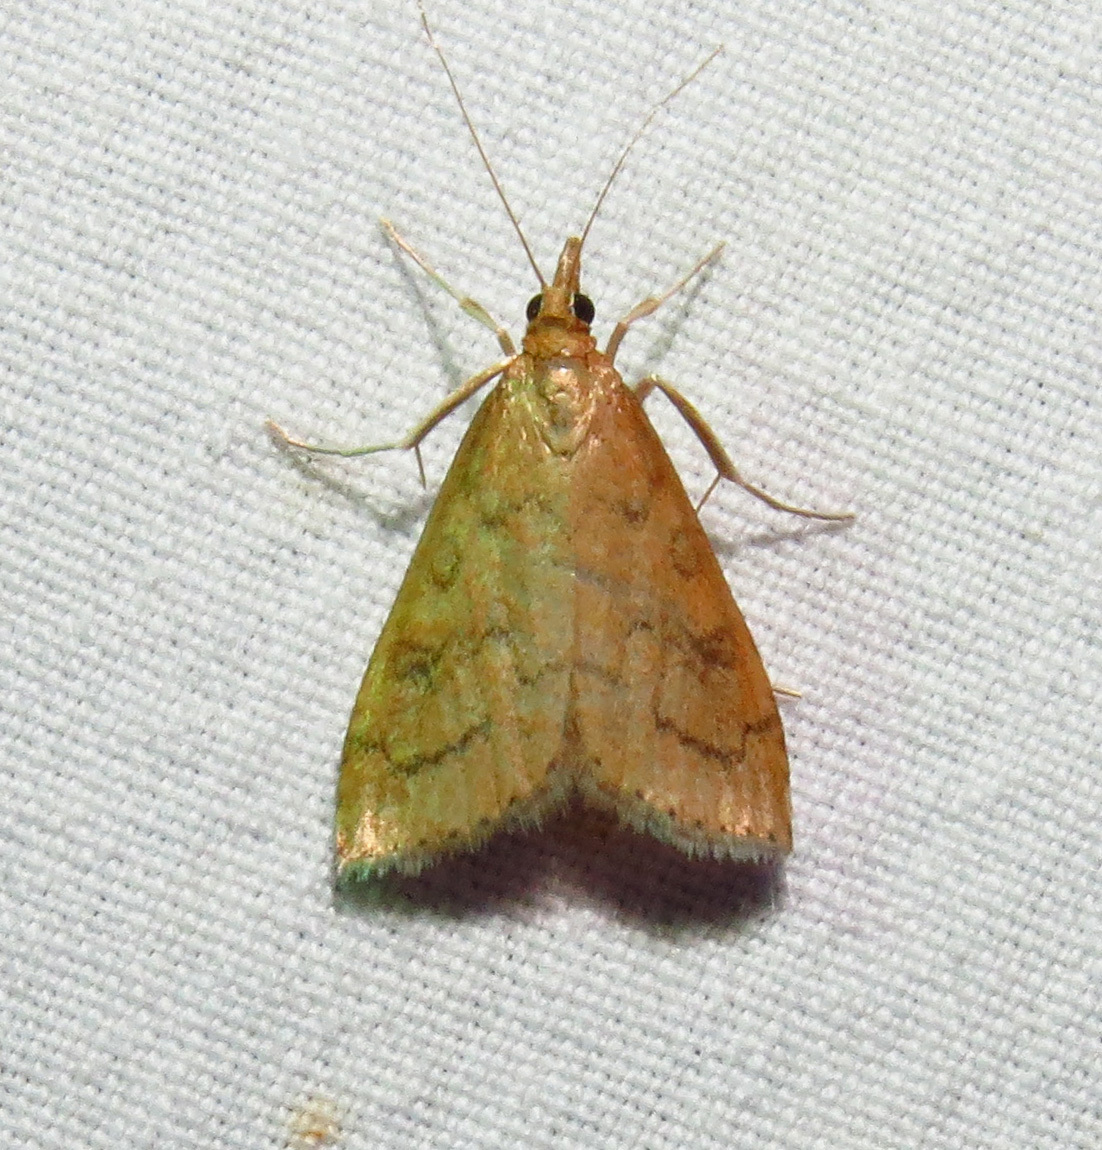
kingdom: Animalia
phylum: Arthropoda
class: Insecta
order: Lepidoptera
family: Crambidae
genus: Udea
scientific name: Udea rubigalis
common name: Celery leaftier moth
